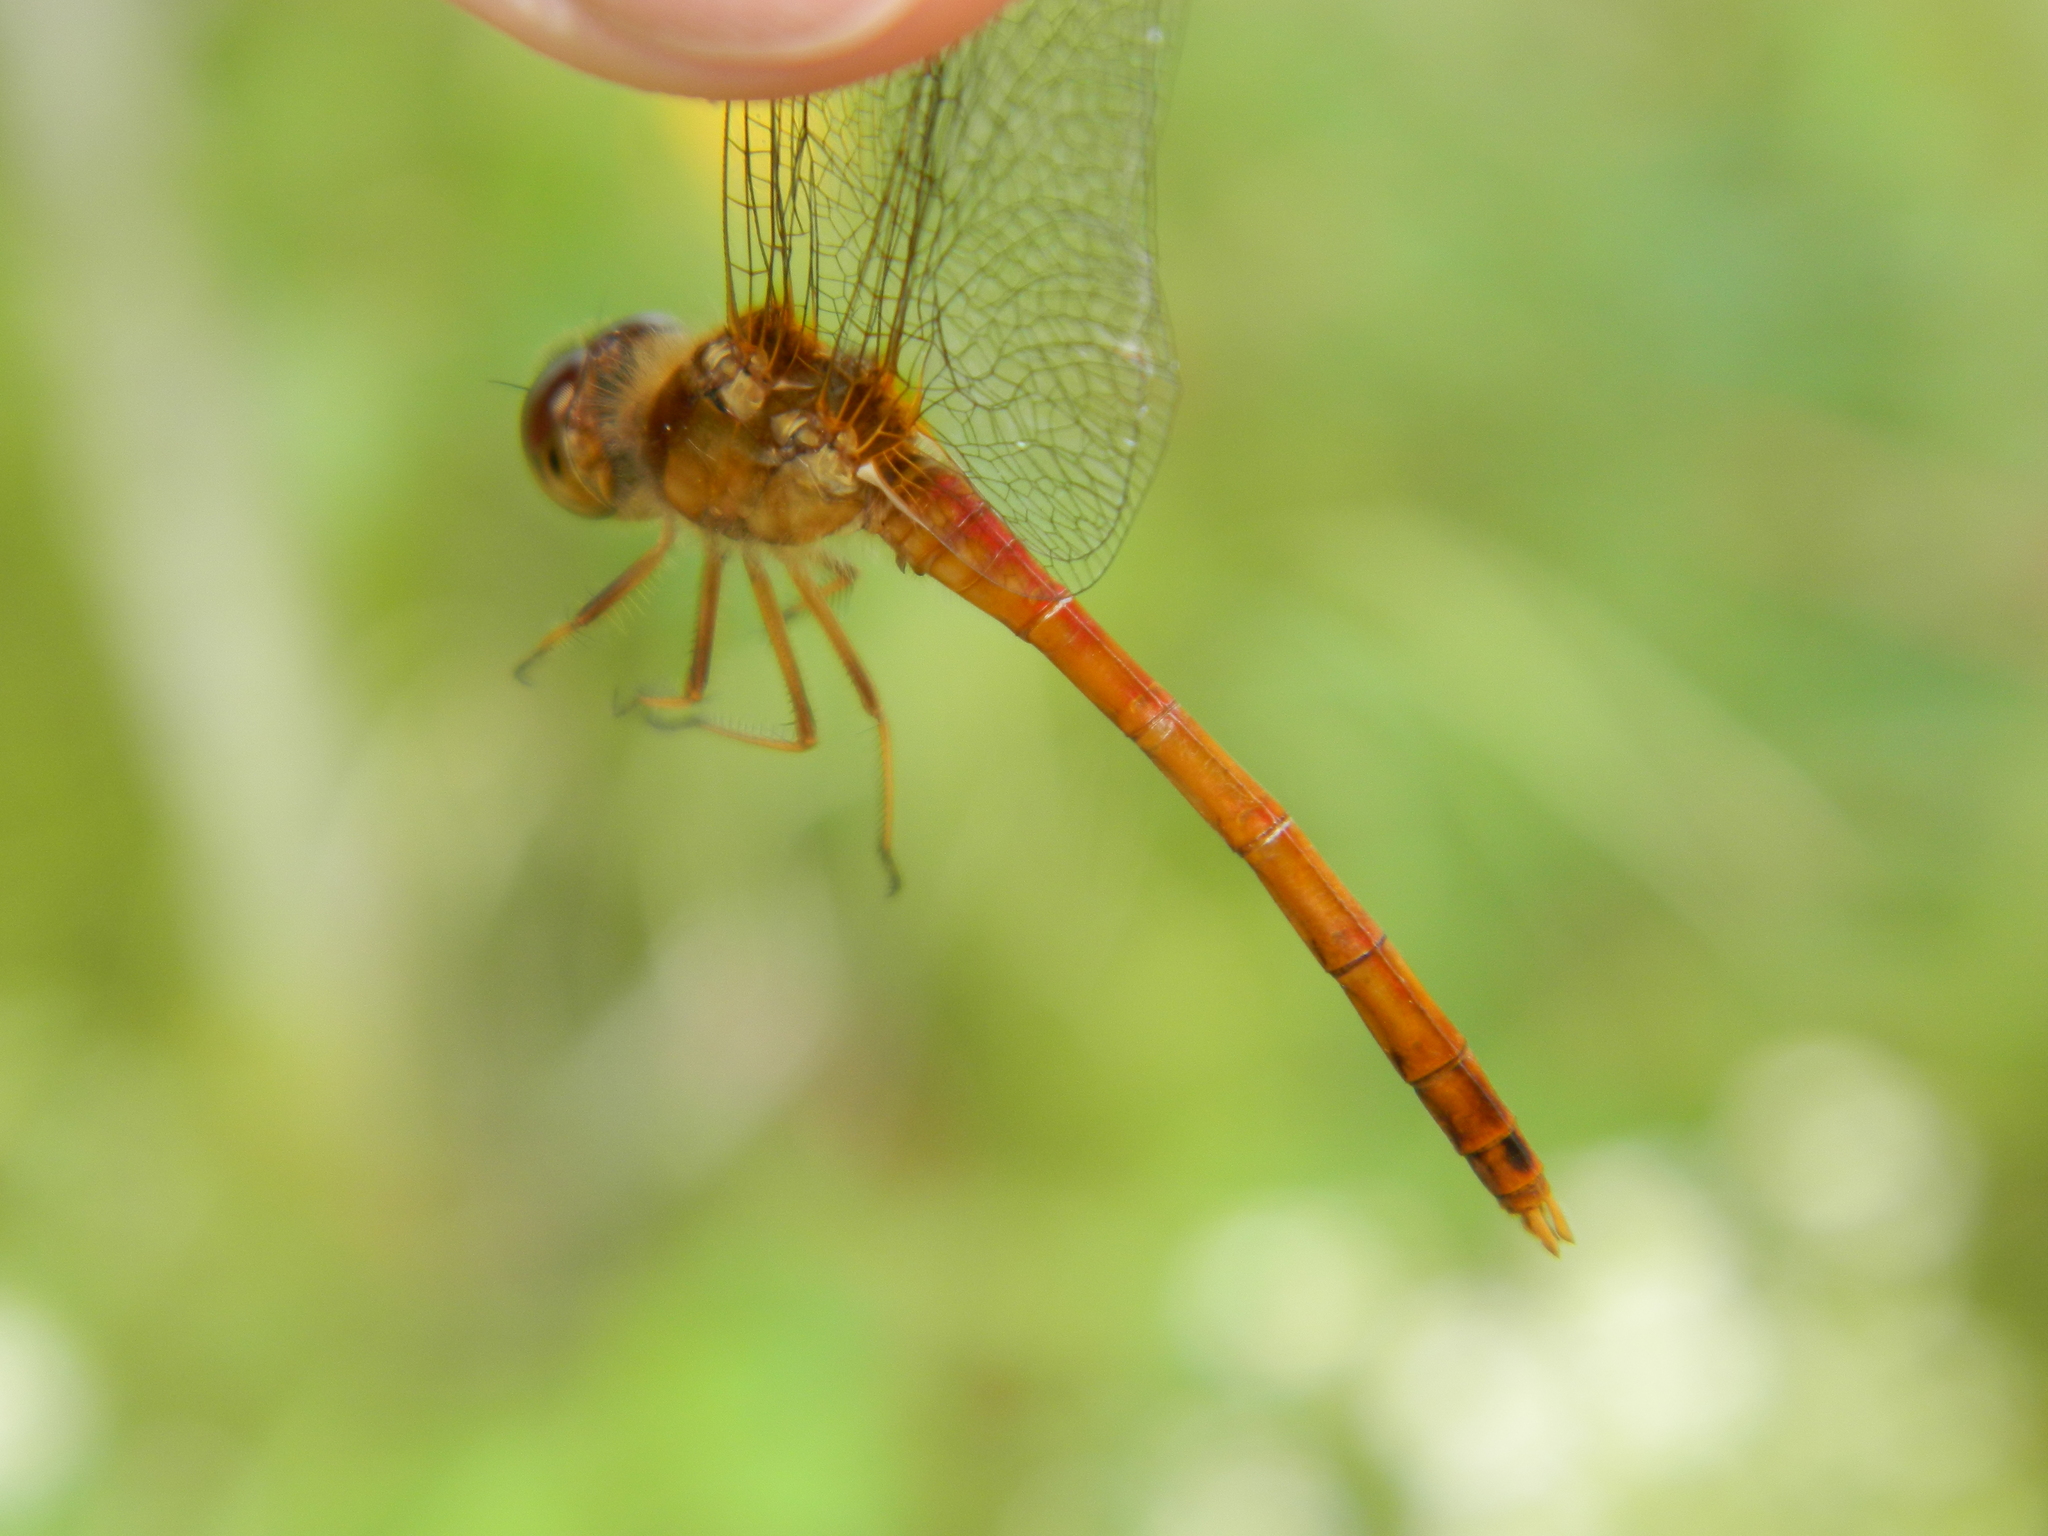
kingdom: Animalia
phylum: Arthropoda
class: Insecta
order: Odonata
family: Libellulidae
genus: Sympetrum
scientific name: Sympetrum vicinum
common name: Autumn meadowhawk
